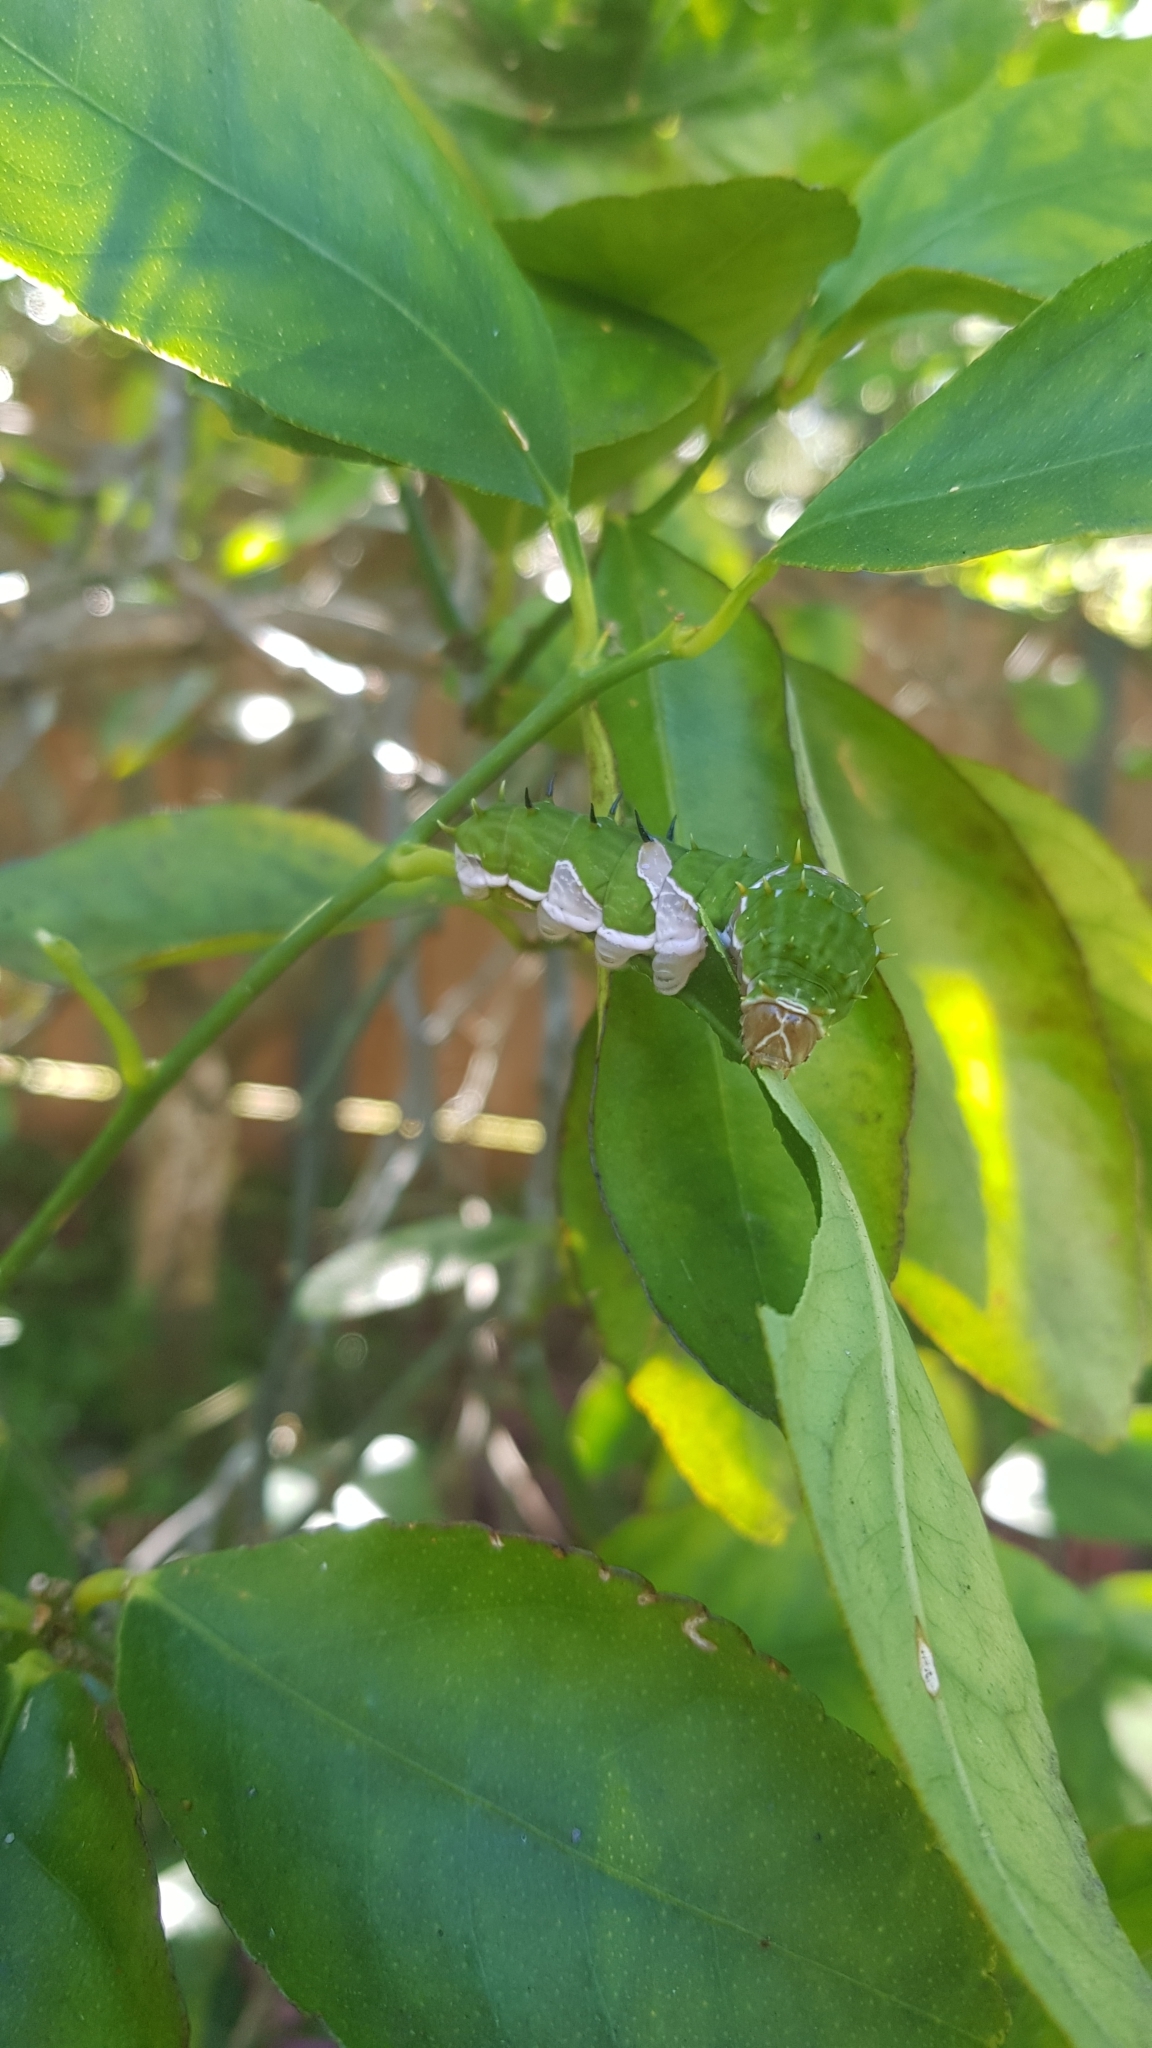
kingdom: Animalia
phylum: Arthropoda
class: Insecta
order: Lepidoptera
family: Papilionidae
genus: Papilio
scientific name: Papilio aegeus
